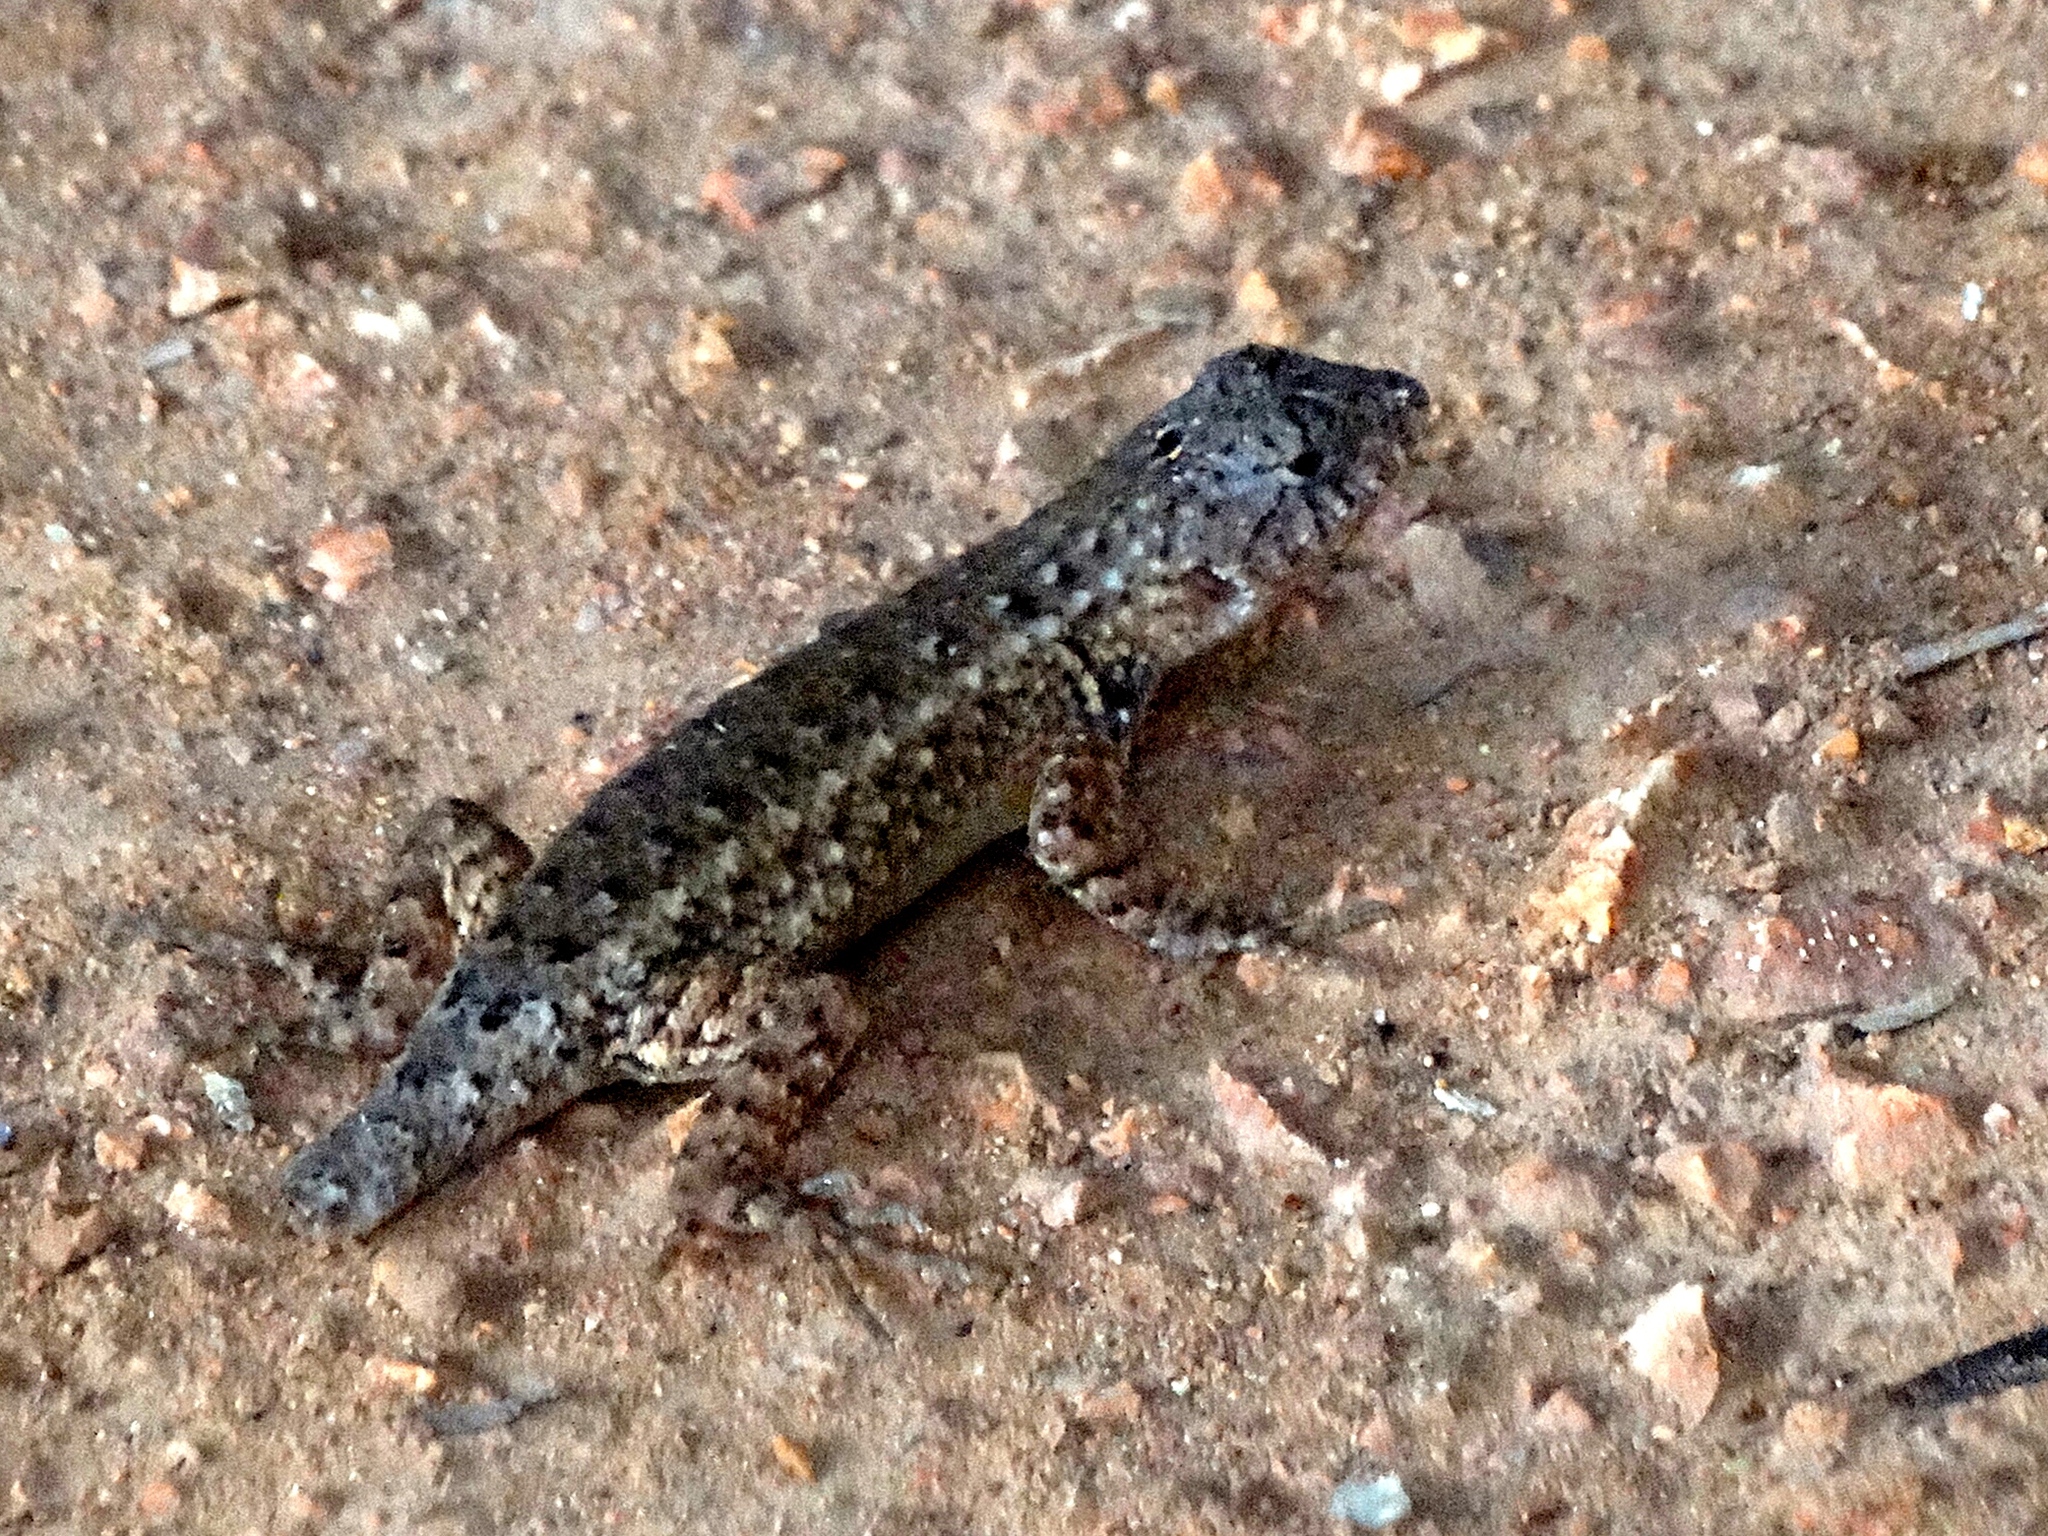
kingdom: Animalia
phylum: Chordata
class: Squamata
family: Phrynosomatidae
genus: Sceloporus
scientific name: Sceloporus nelsoni
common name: Nelson's spiny lizard
